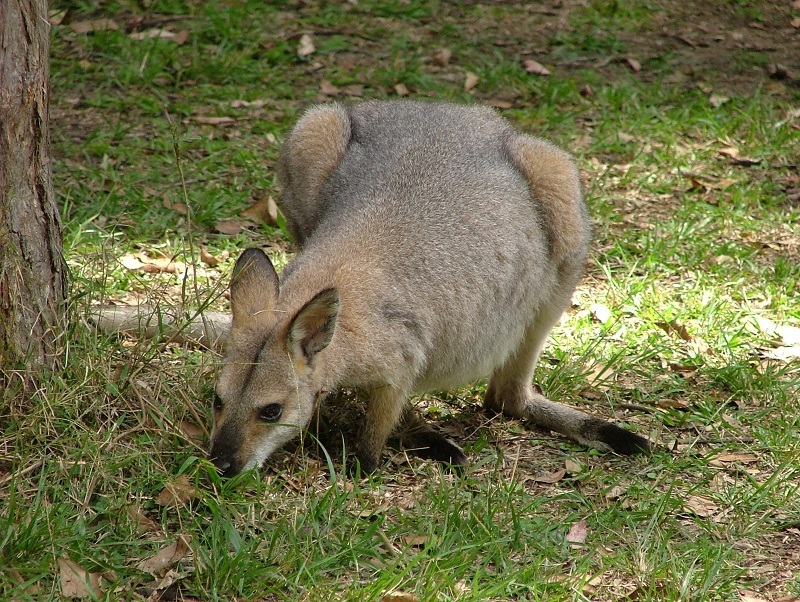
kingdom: Animalia
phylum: Chordata
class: Mammalia
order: Diprotodontia
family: Macropodidae
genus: Notamacropus
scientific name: Notamacropus rufogriseus
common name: Red-necked wallaby
